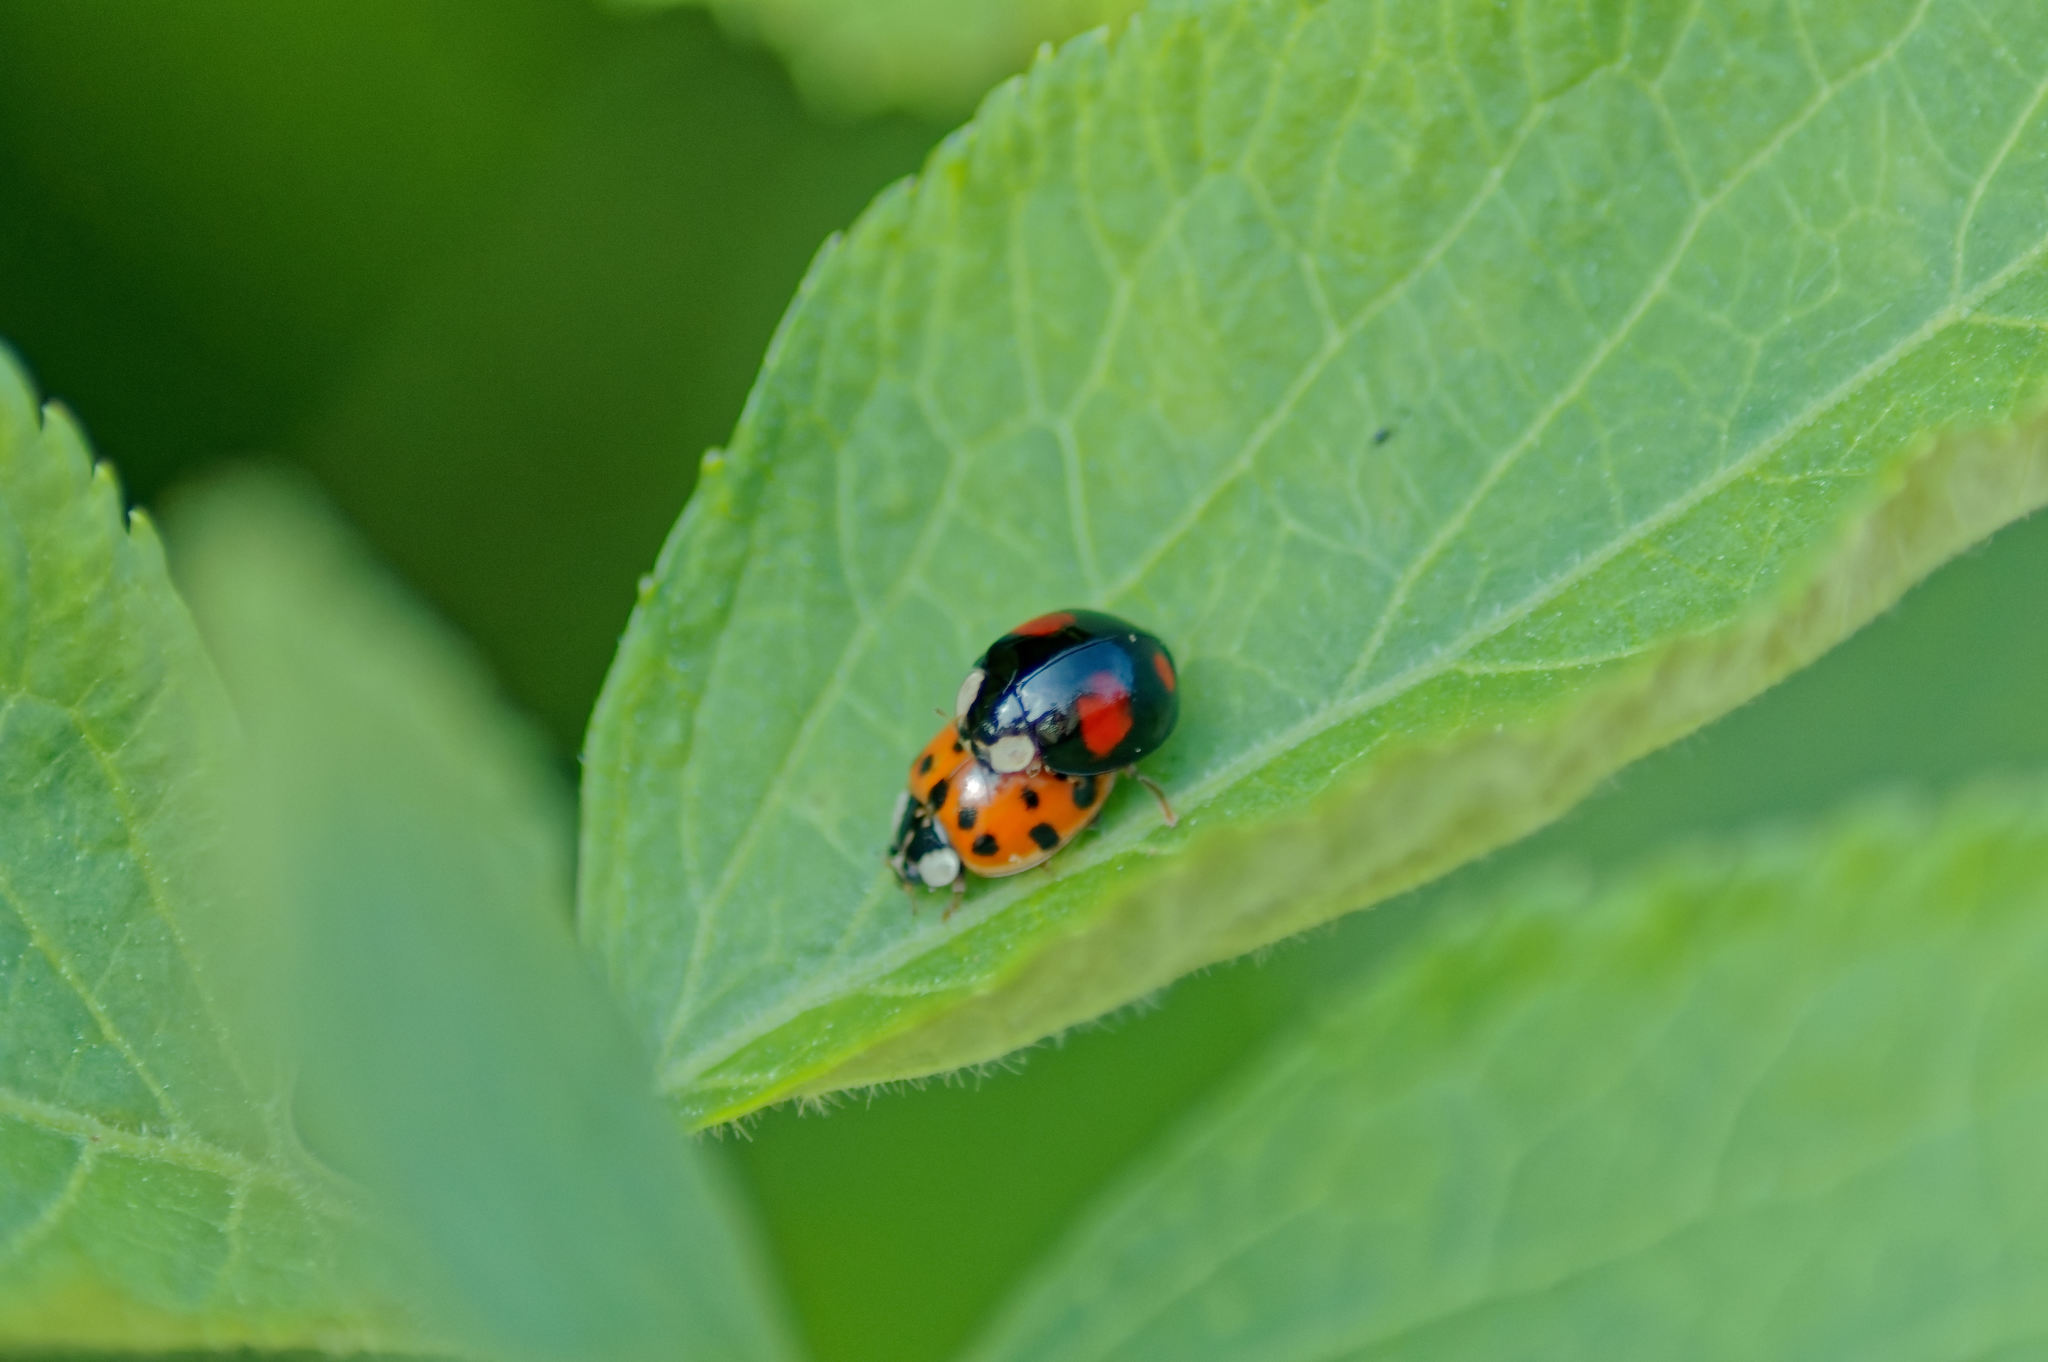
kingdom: Animalia
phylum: Arthropoda
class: Insecta
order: Coleoptera
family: Coccinellidae
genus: Harmonia
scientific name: Harmonia axyridis
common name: Harlequin ladybird
